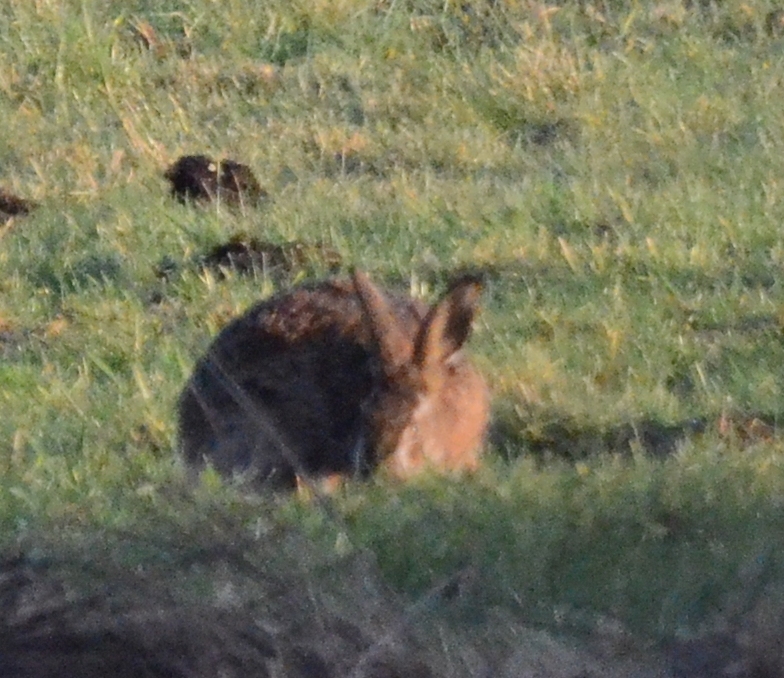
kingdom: Animalia
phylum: Chordata
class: Mammalia
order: Lagomorpha
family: Leporidae
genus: Lepus
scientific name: Lepus europaeus
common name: European hare
